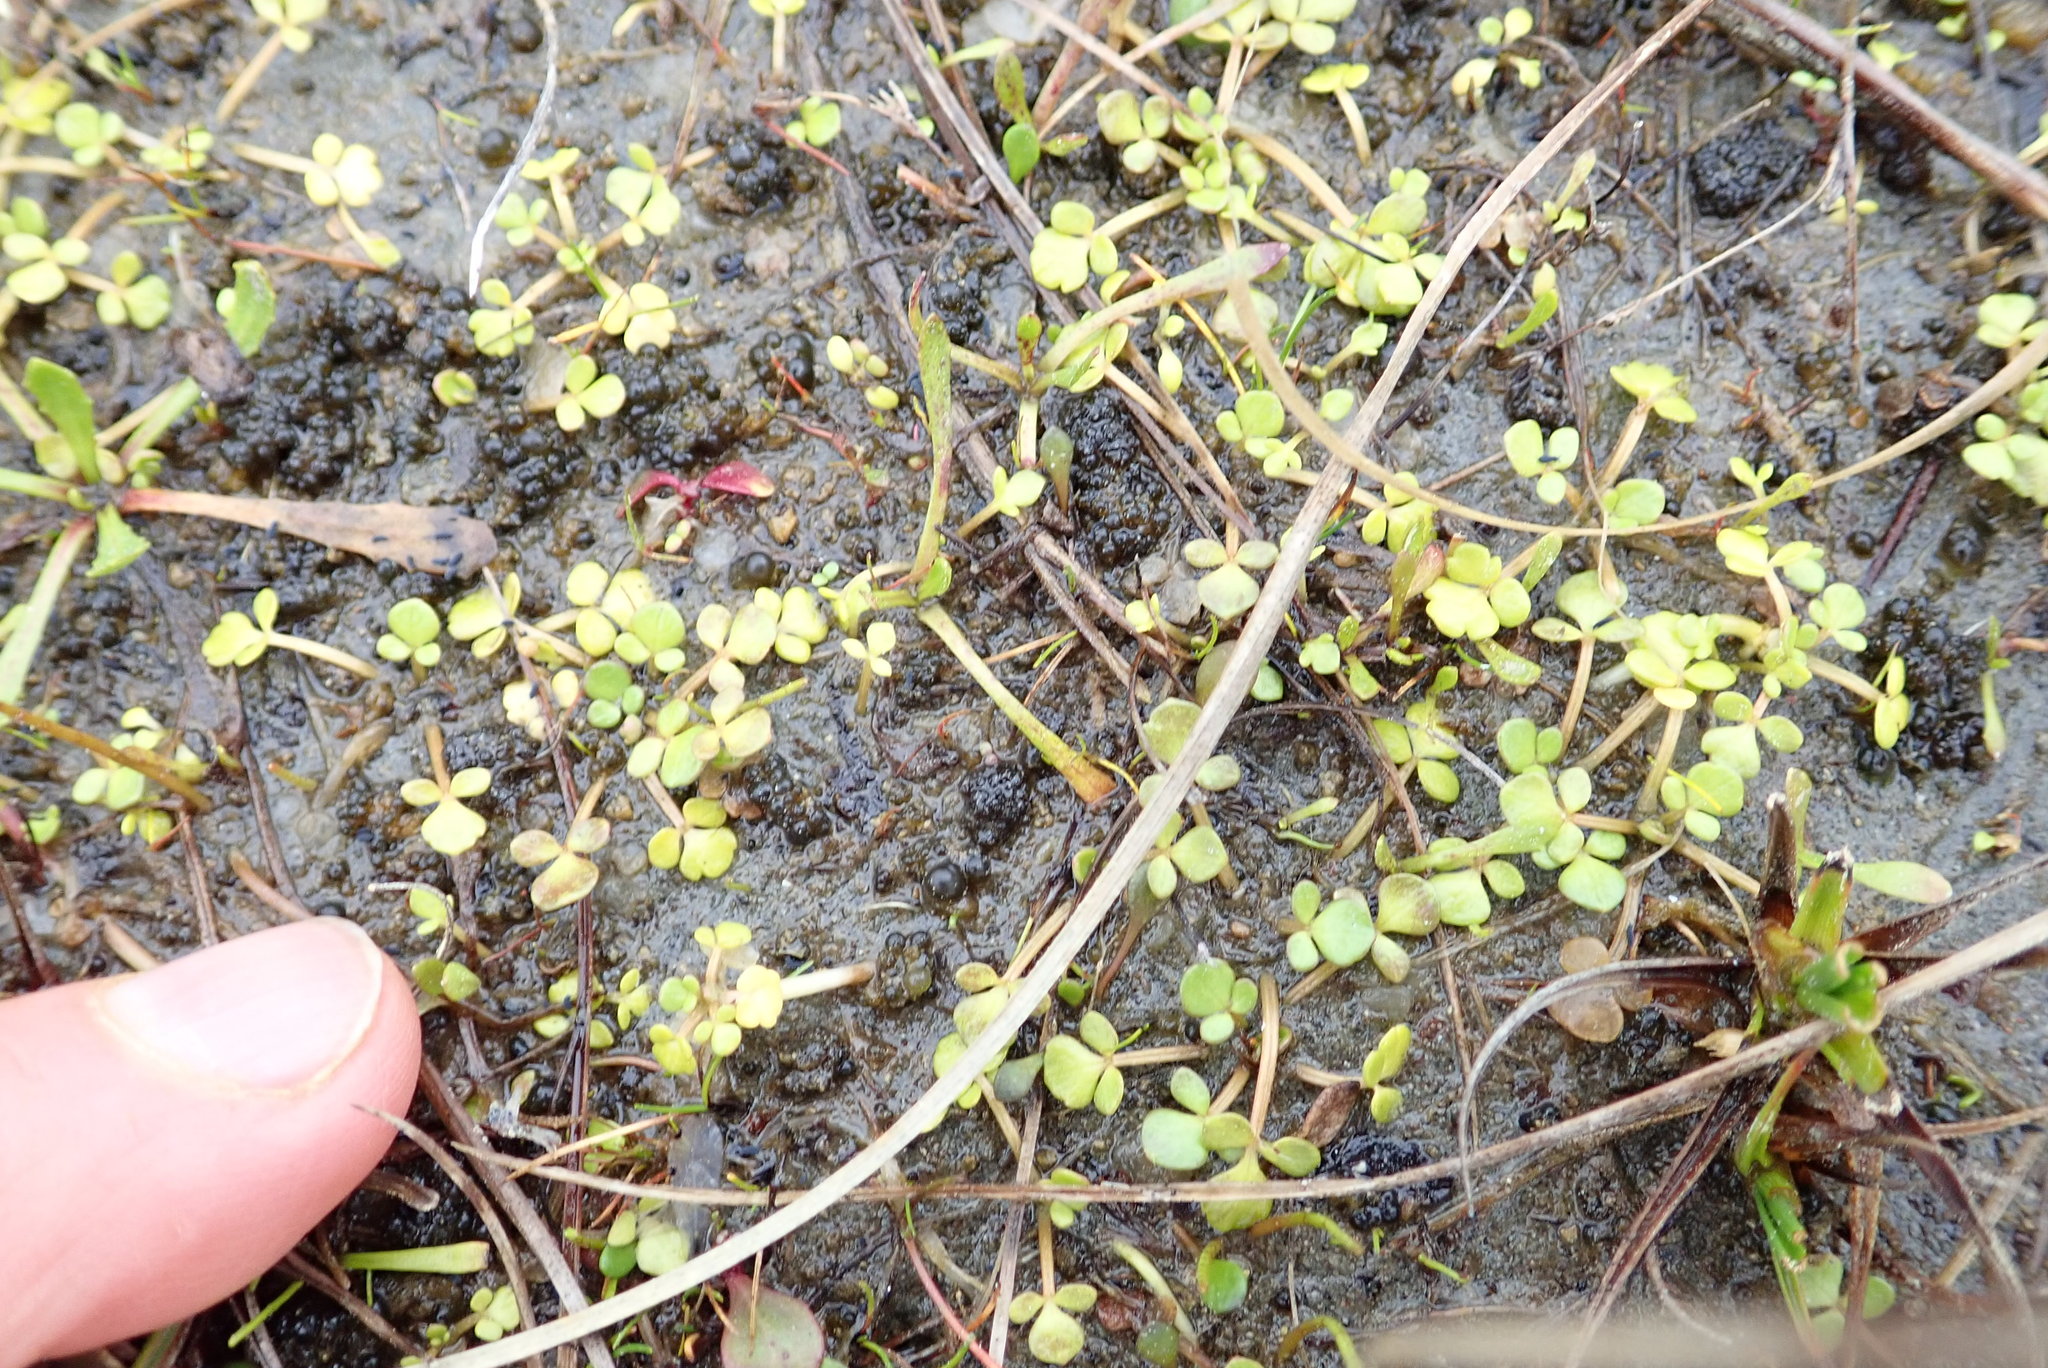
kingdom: Plantae
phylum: Tracheophyta
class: Magnoliopsida
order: Ranunculales
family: Ranunculaceae
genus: Ranunculus
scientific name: Ranunculus acaulis
